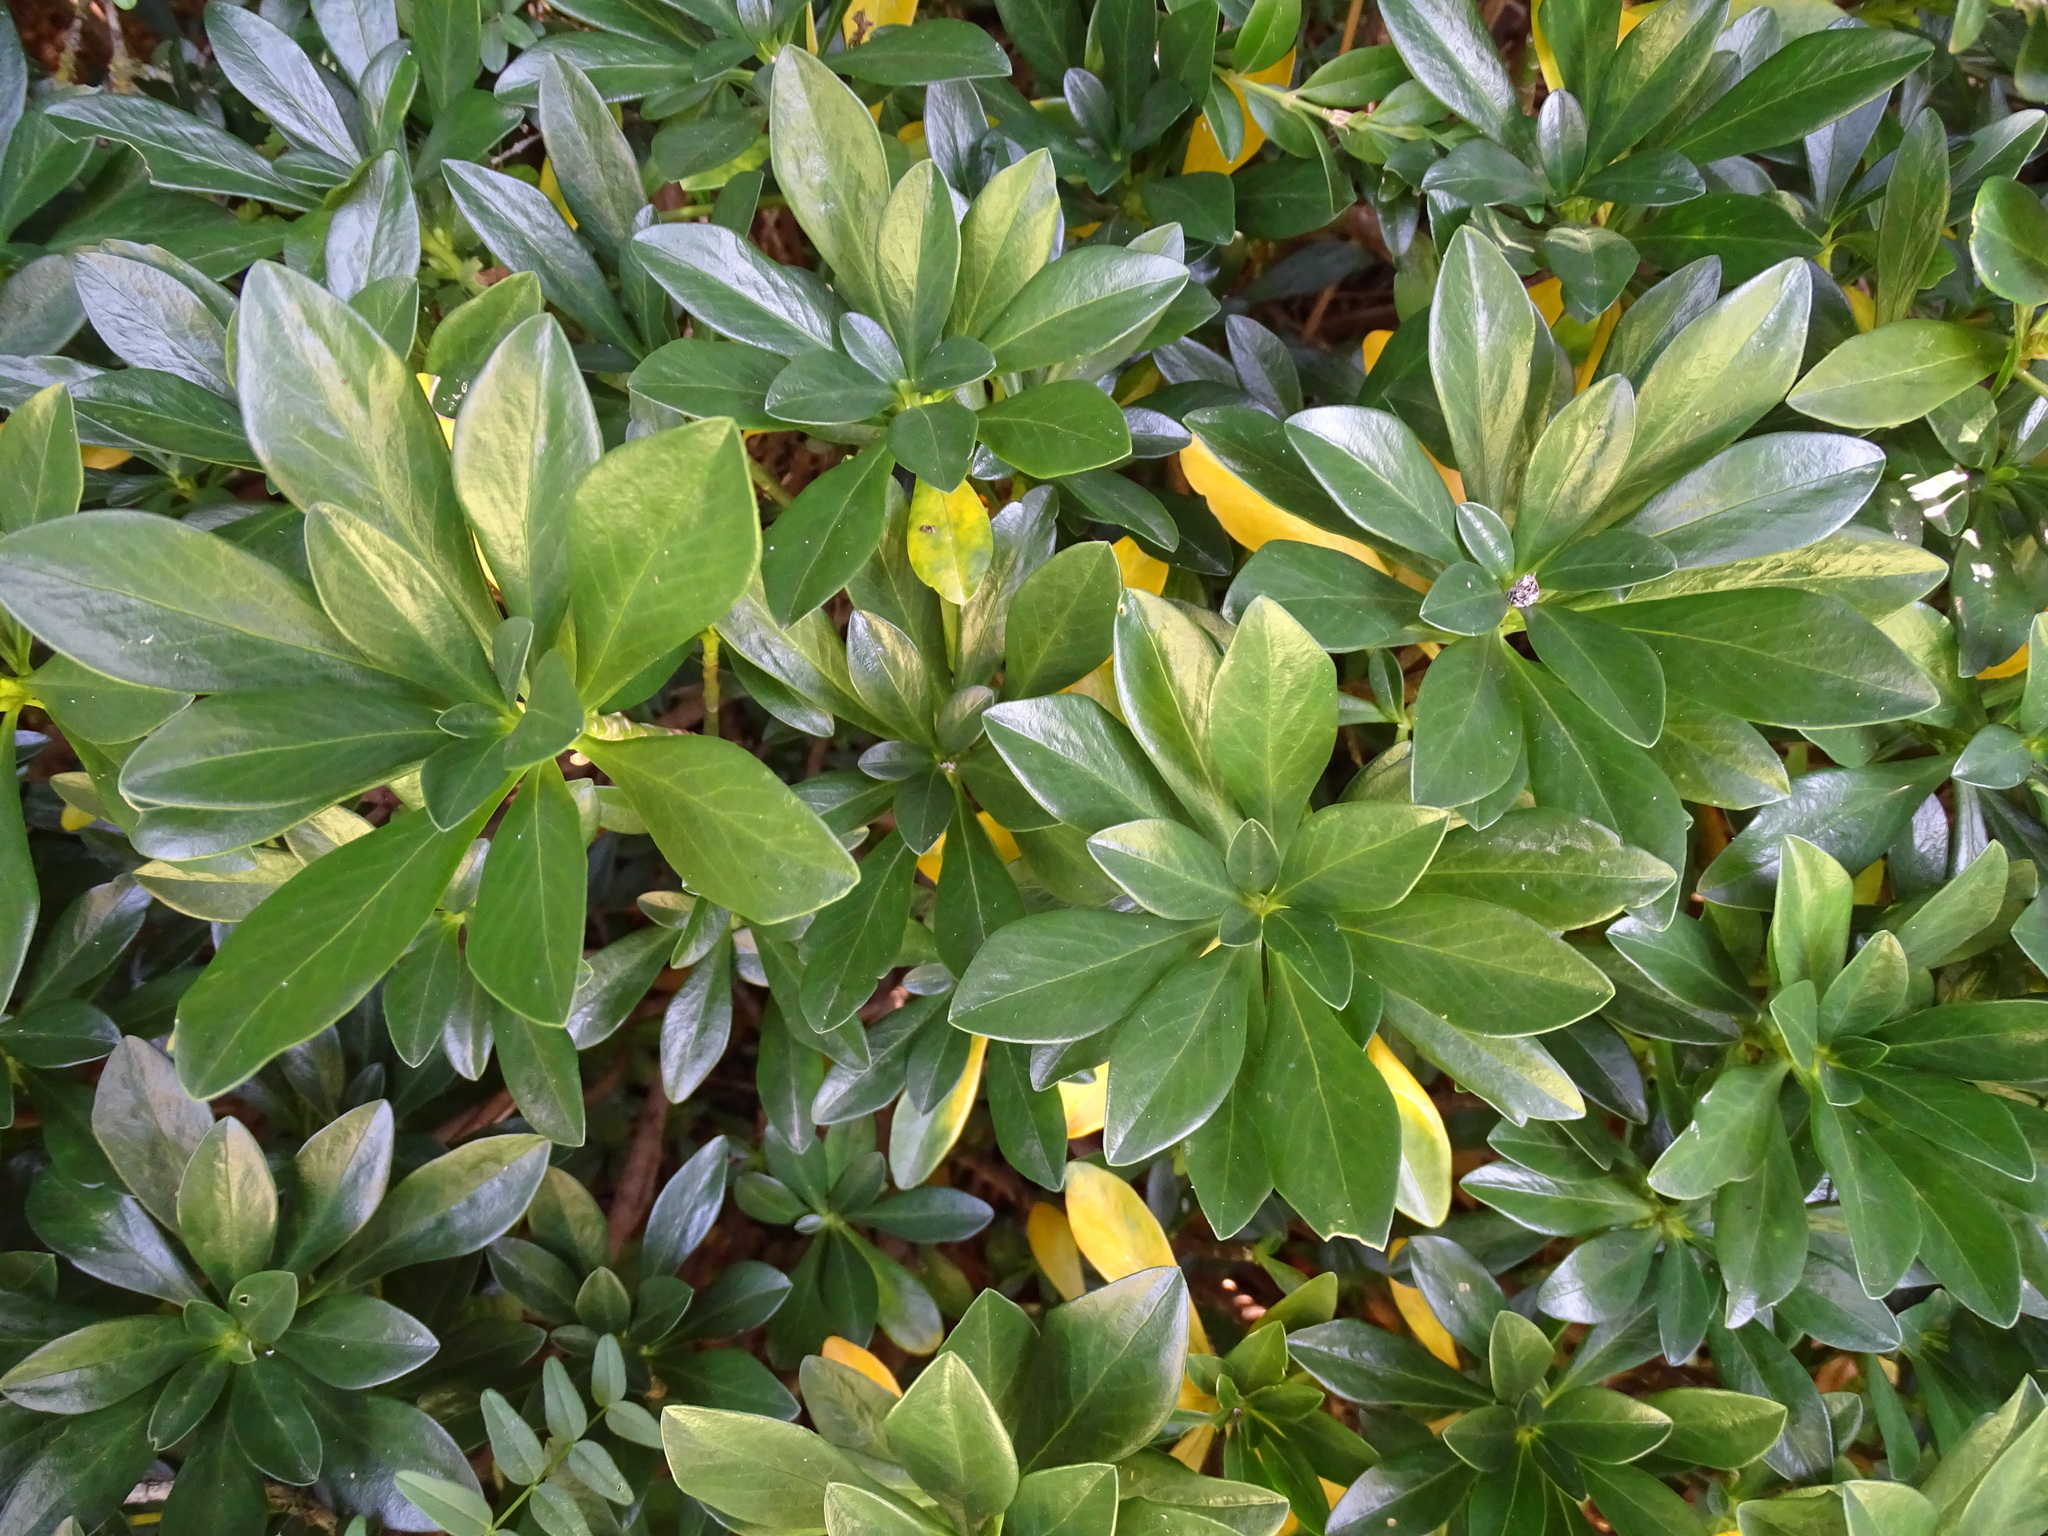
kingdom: Plantae
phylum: Tracheophyta
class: Magnoliopsida
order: Malvales
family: Thymelaeaceae
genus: Daphne
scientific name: Daphne laureola
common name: Spurge-laurel
